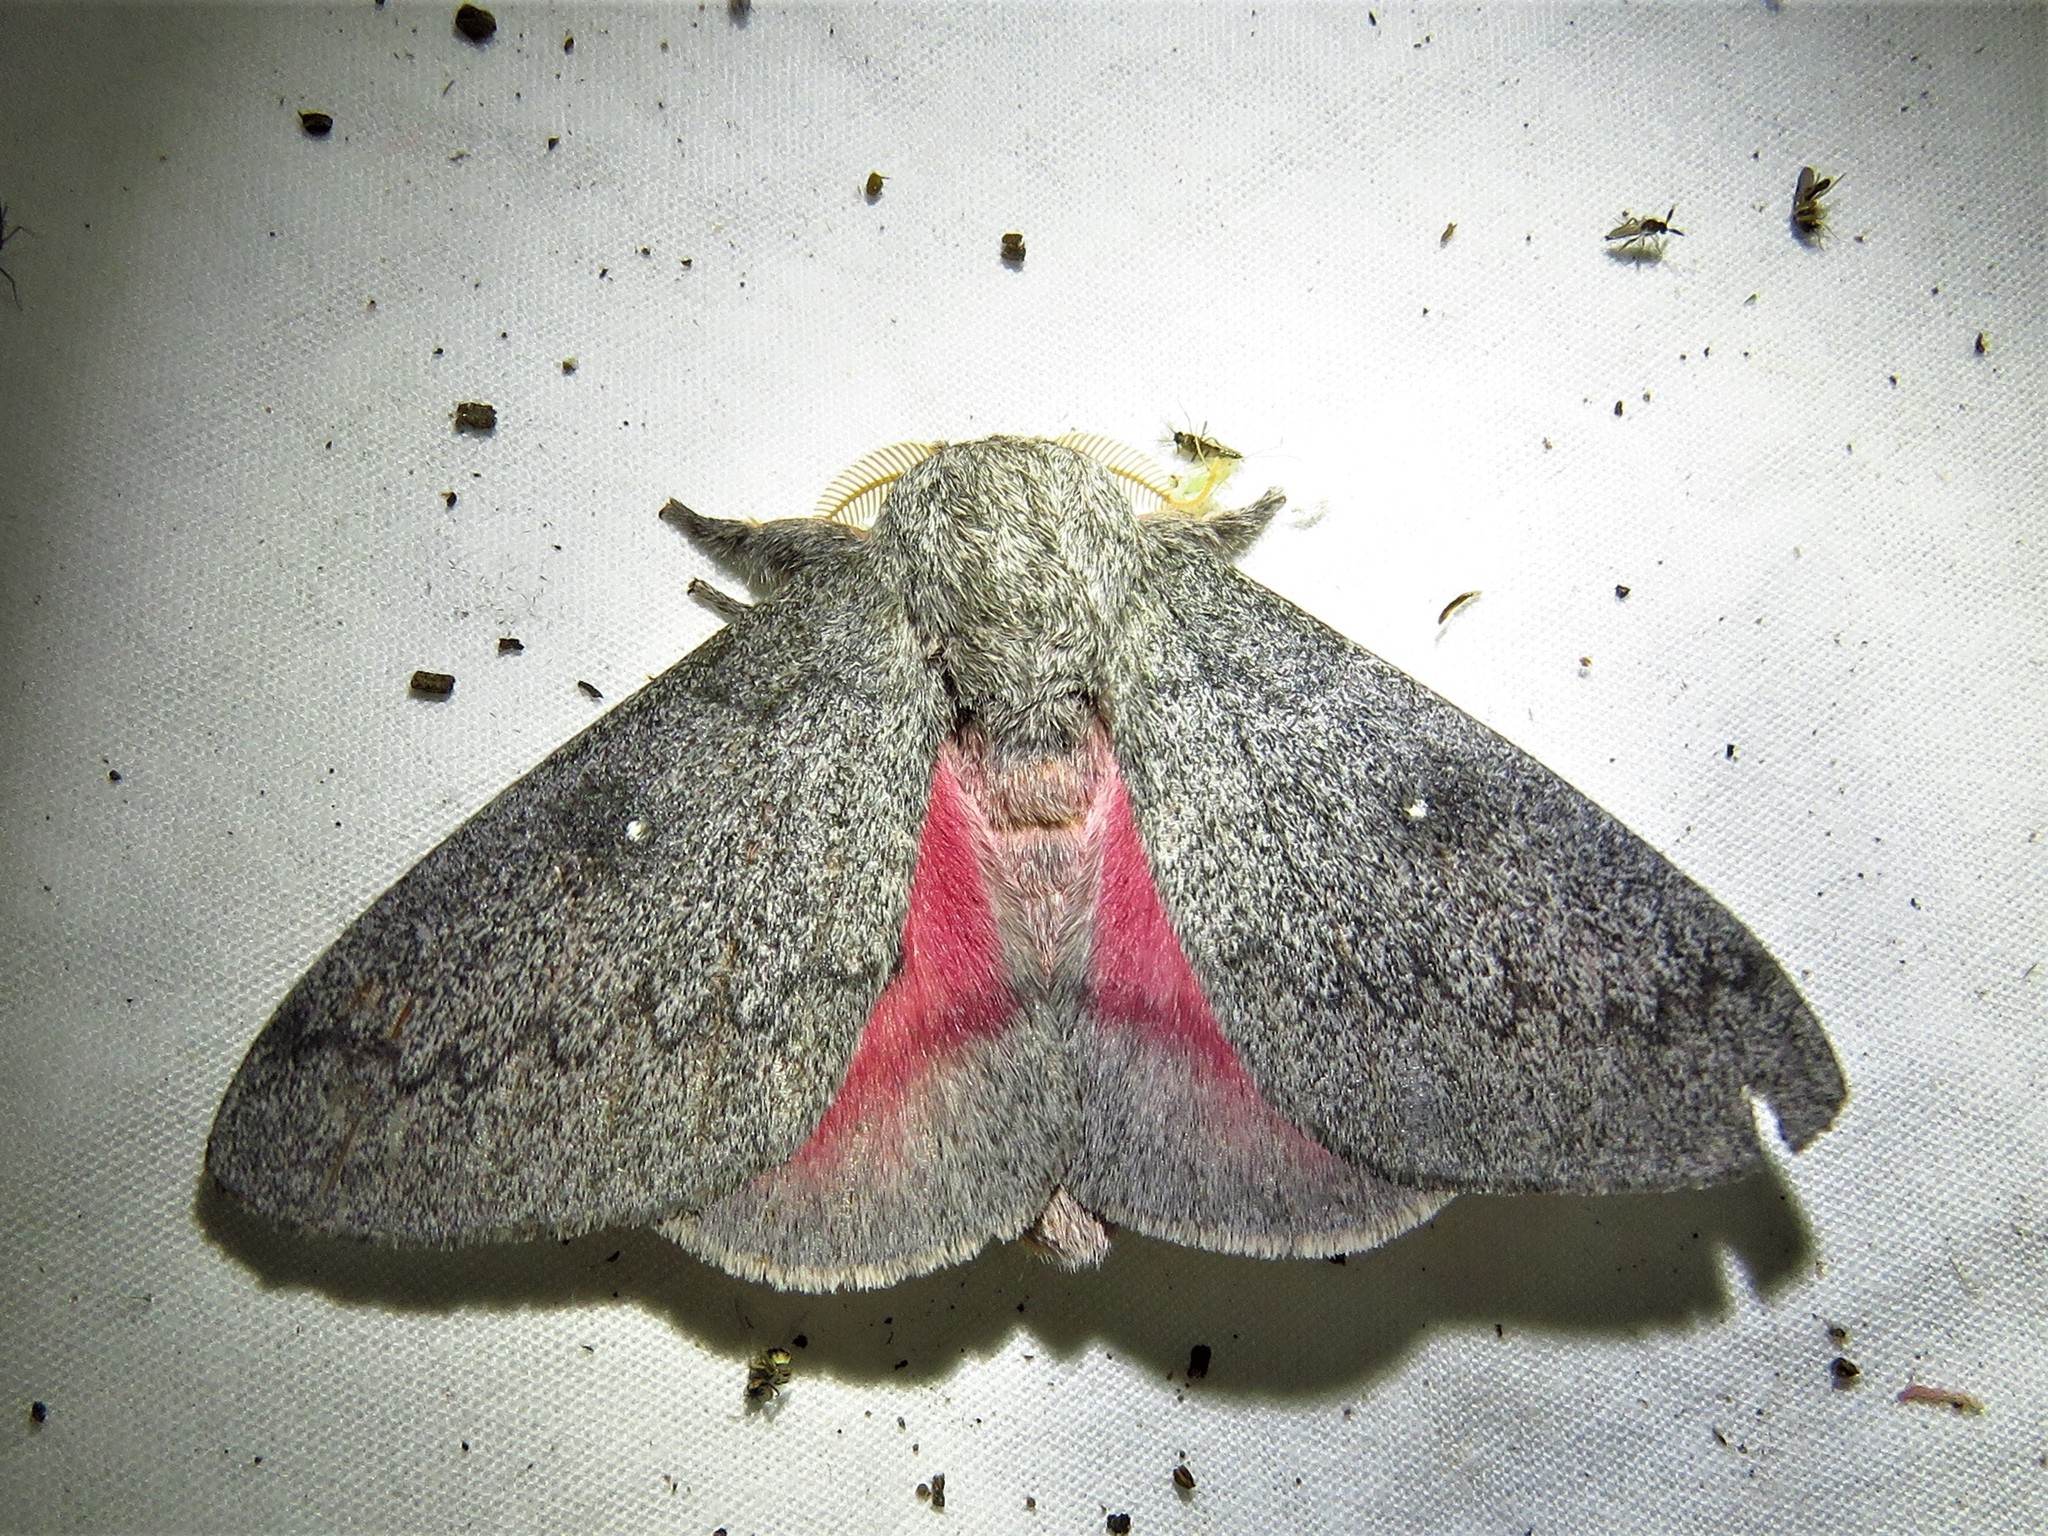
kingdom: Animalia
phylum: Arthropoda
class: Insecta
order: Lepidoptera
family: Saturniidae
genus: Syssphinx
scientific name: Syssphinx heiligbrodti
